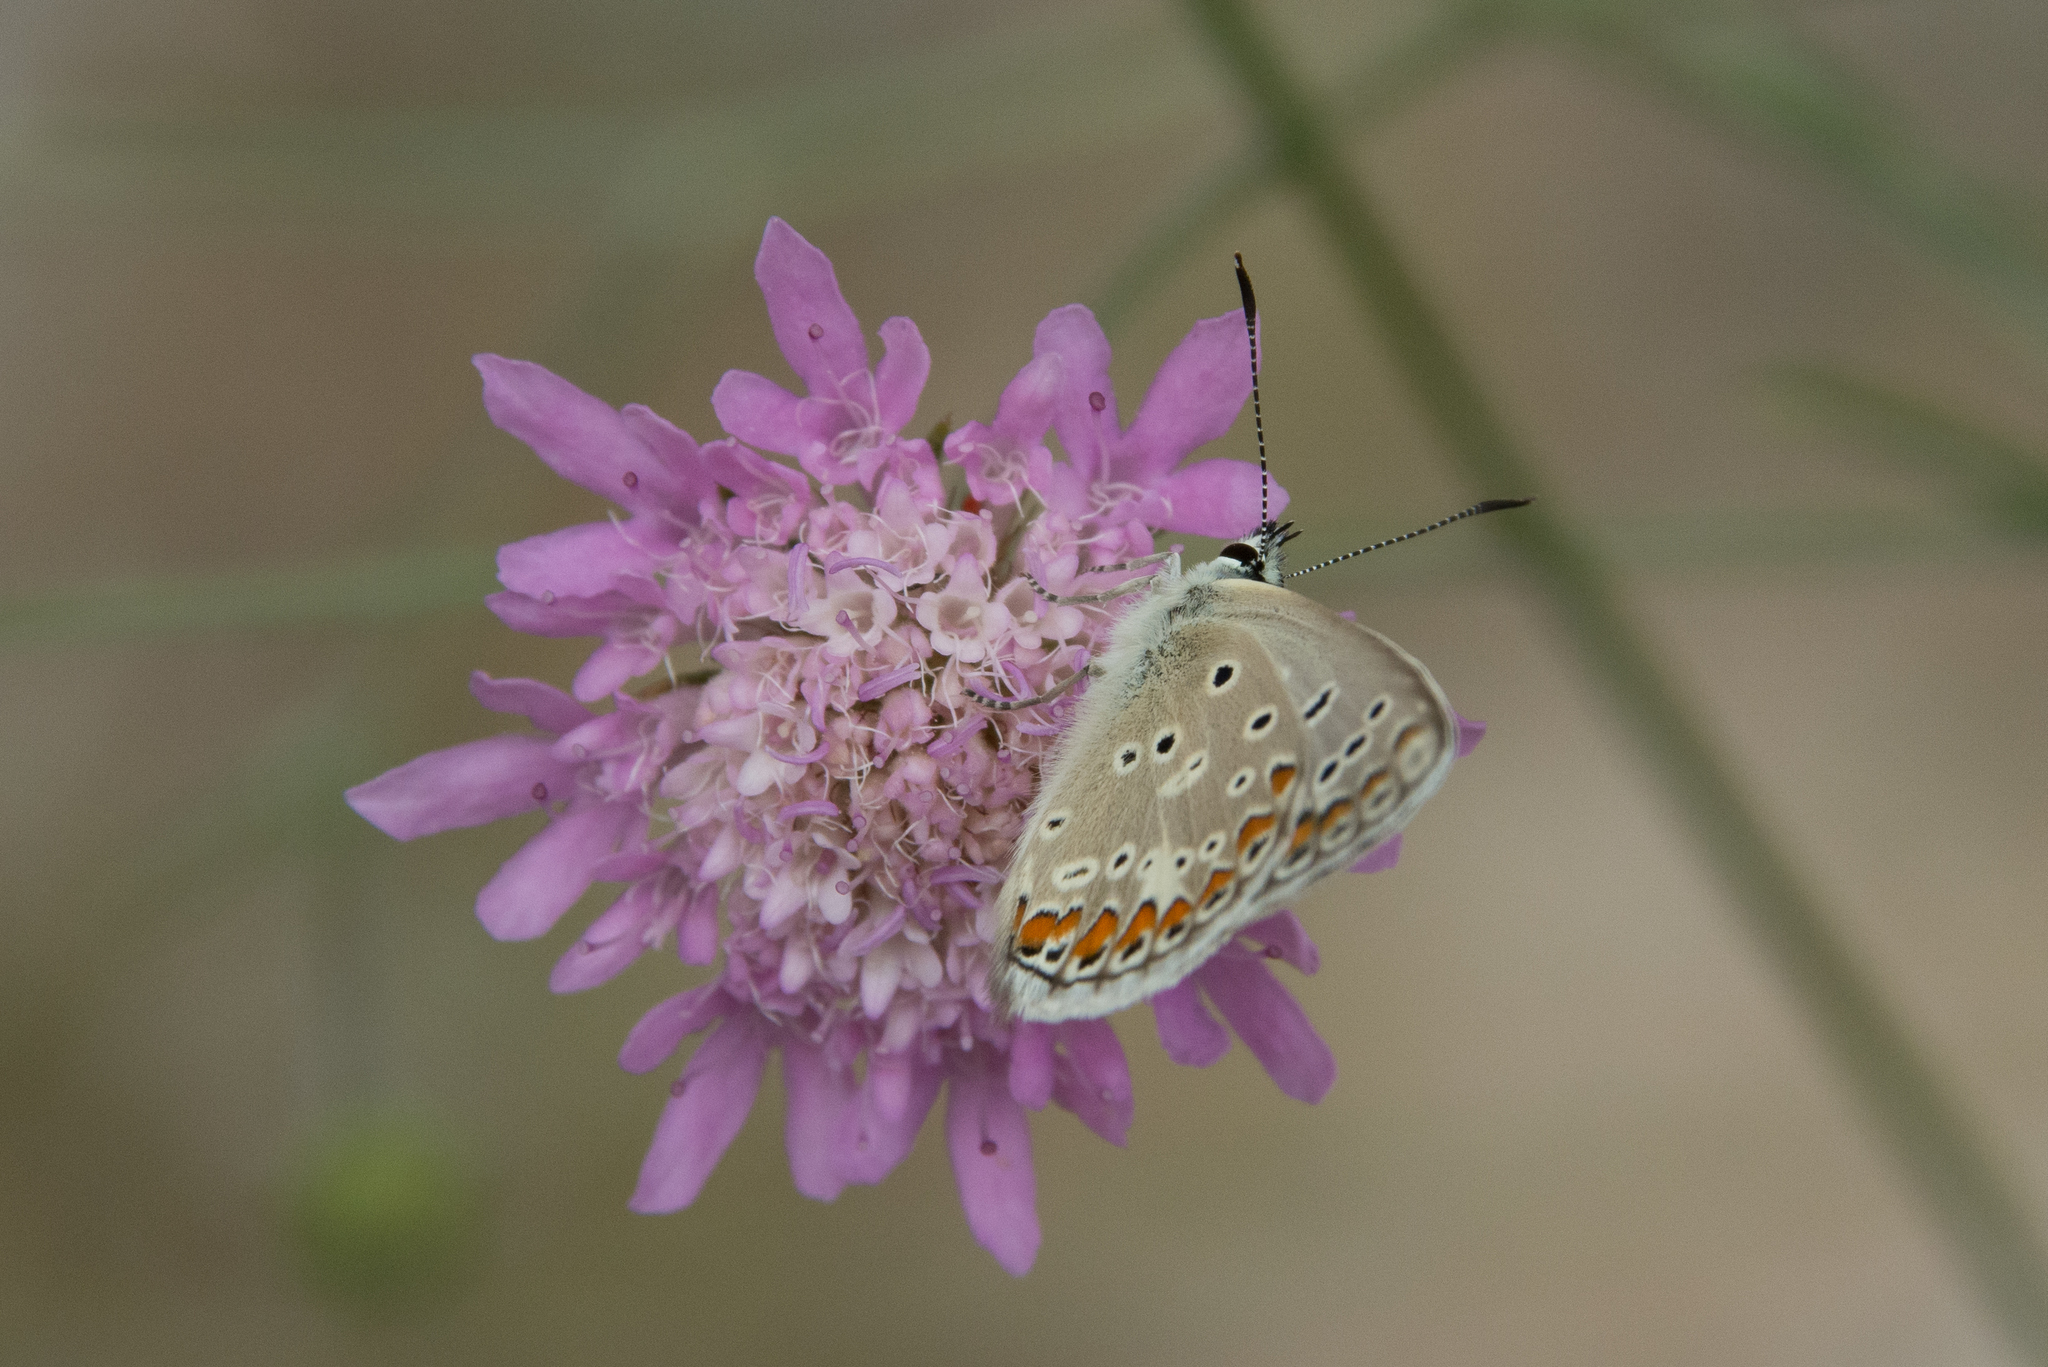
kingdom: Animalia
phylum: Arthropoda
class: Insecta
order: Lepidoptera
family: Lycaenidae
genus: Polyommatus
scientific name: Polyommatus celina
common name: Austaut's blue
